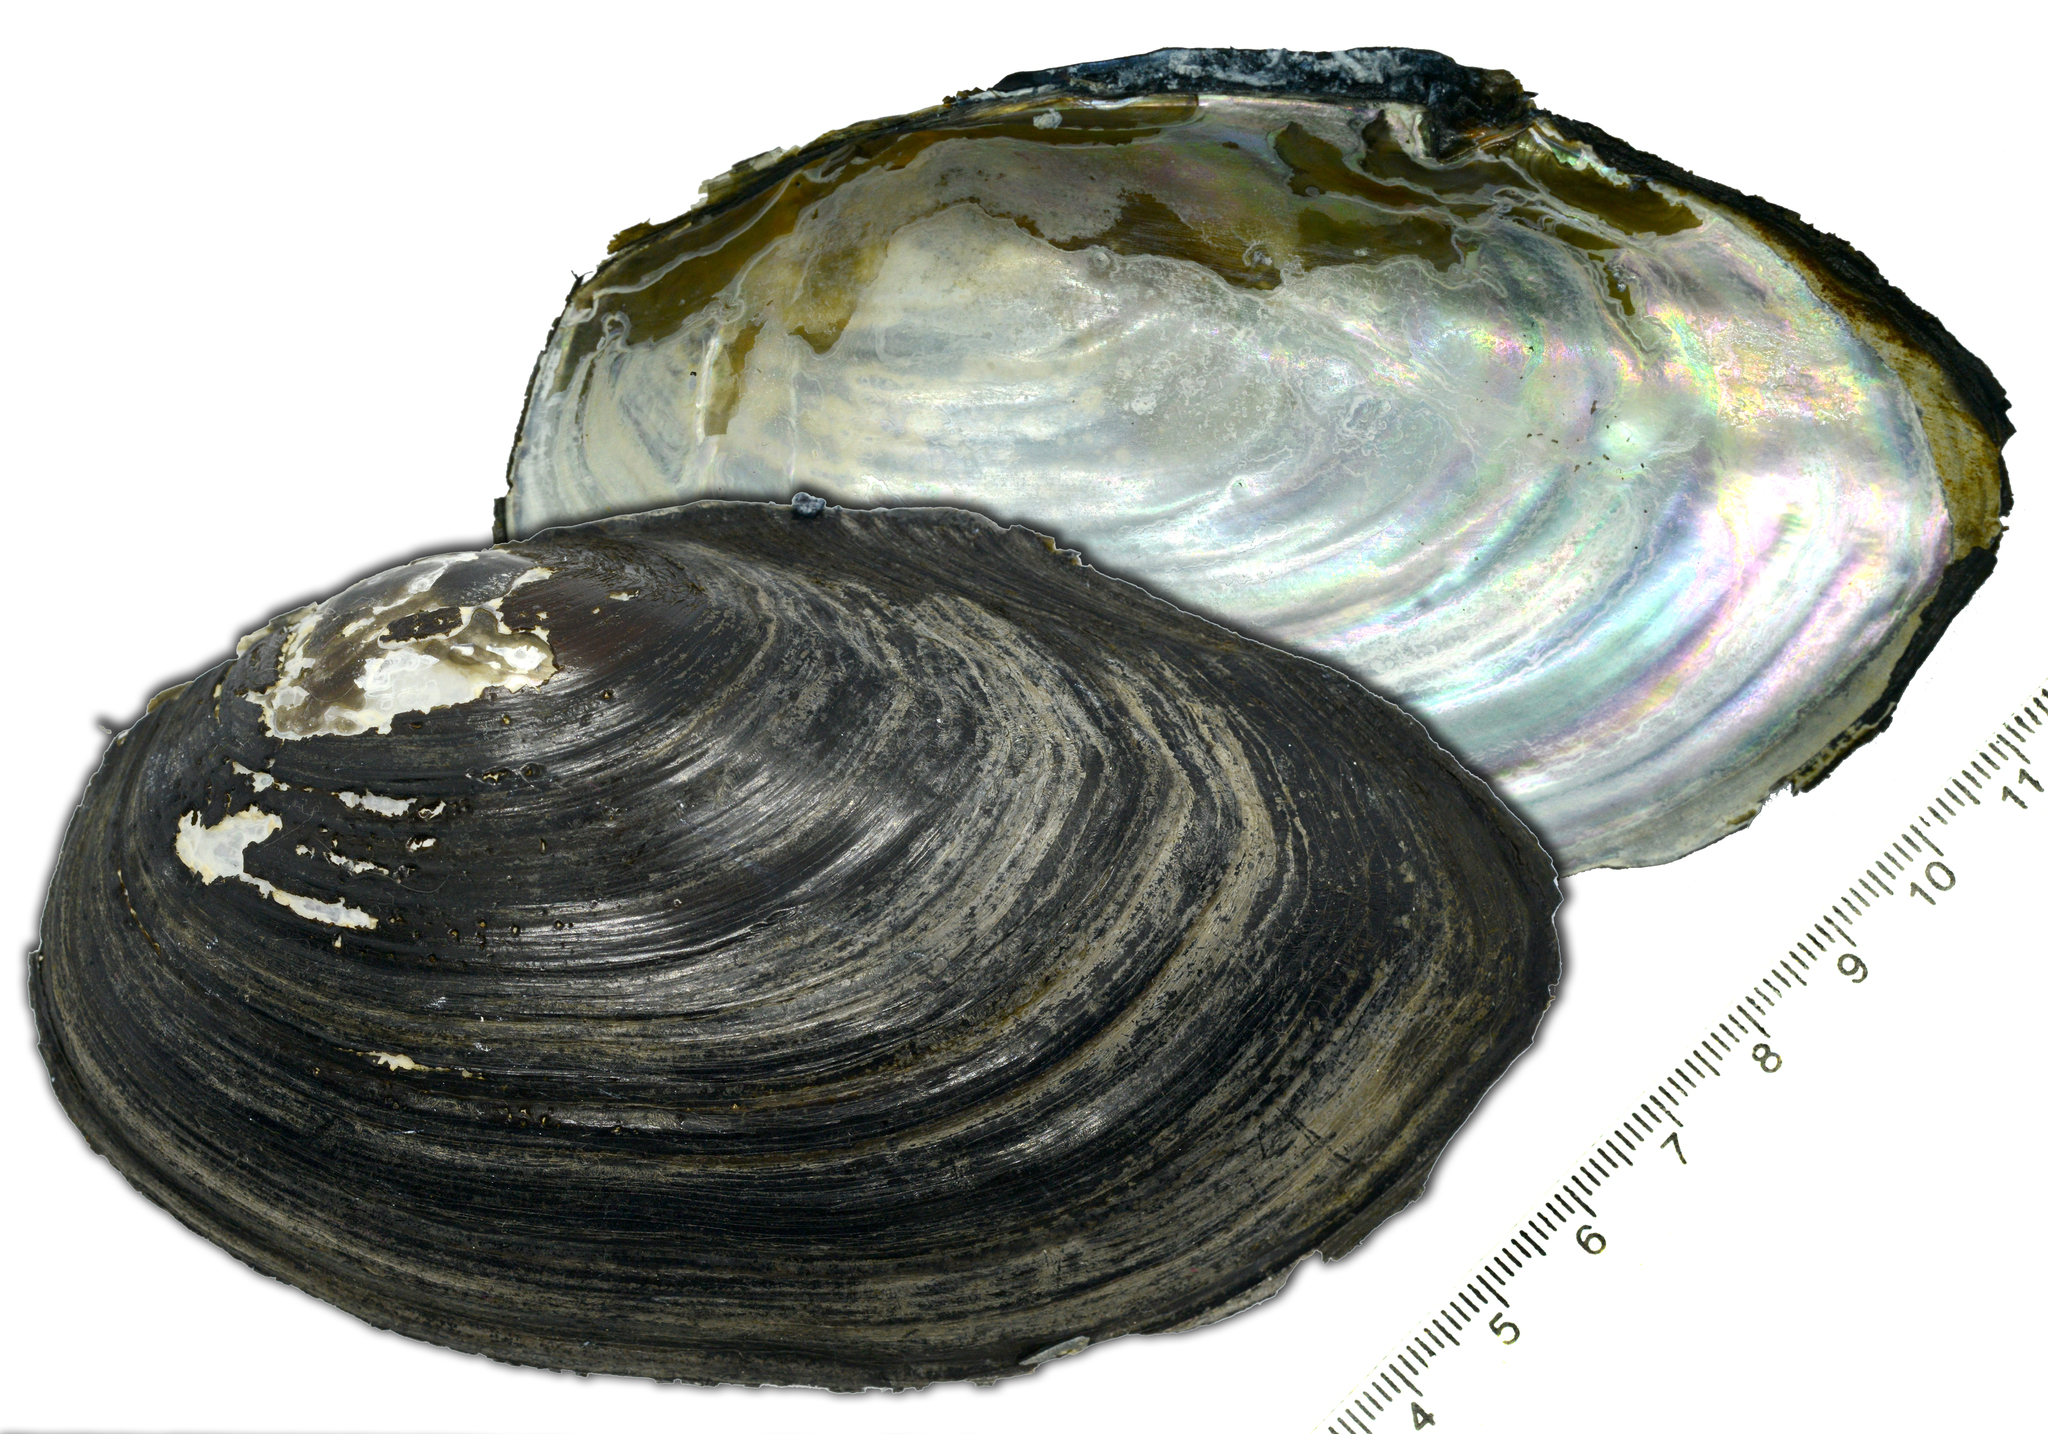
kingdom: Animalia
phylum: Mollusca
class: Bivalvia
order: Unionida
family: Unionidae
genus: Sinanodonta
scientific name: Sinanodonta schrenkii
